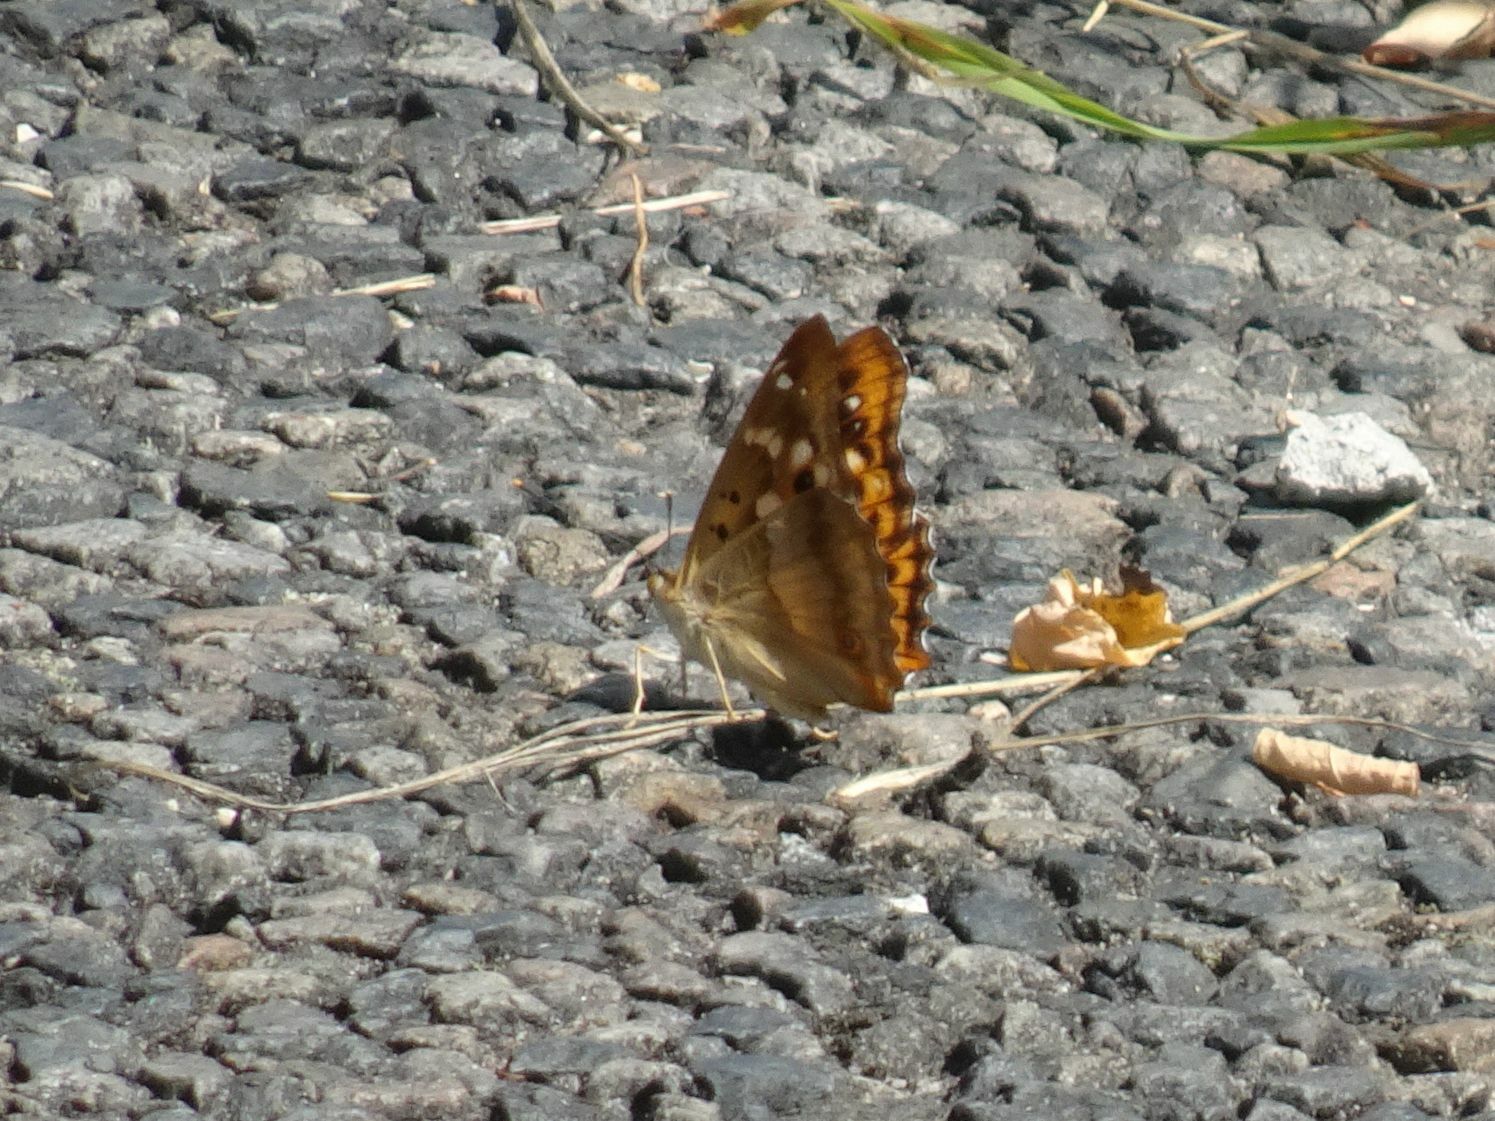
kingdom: Animalia
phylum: Arthropoda
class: Insecta
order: Lepidoptera
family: Nymphalidae
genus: Apatura
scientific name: Apatura ilia
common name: Lesser purple emperor
